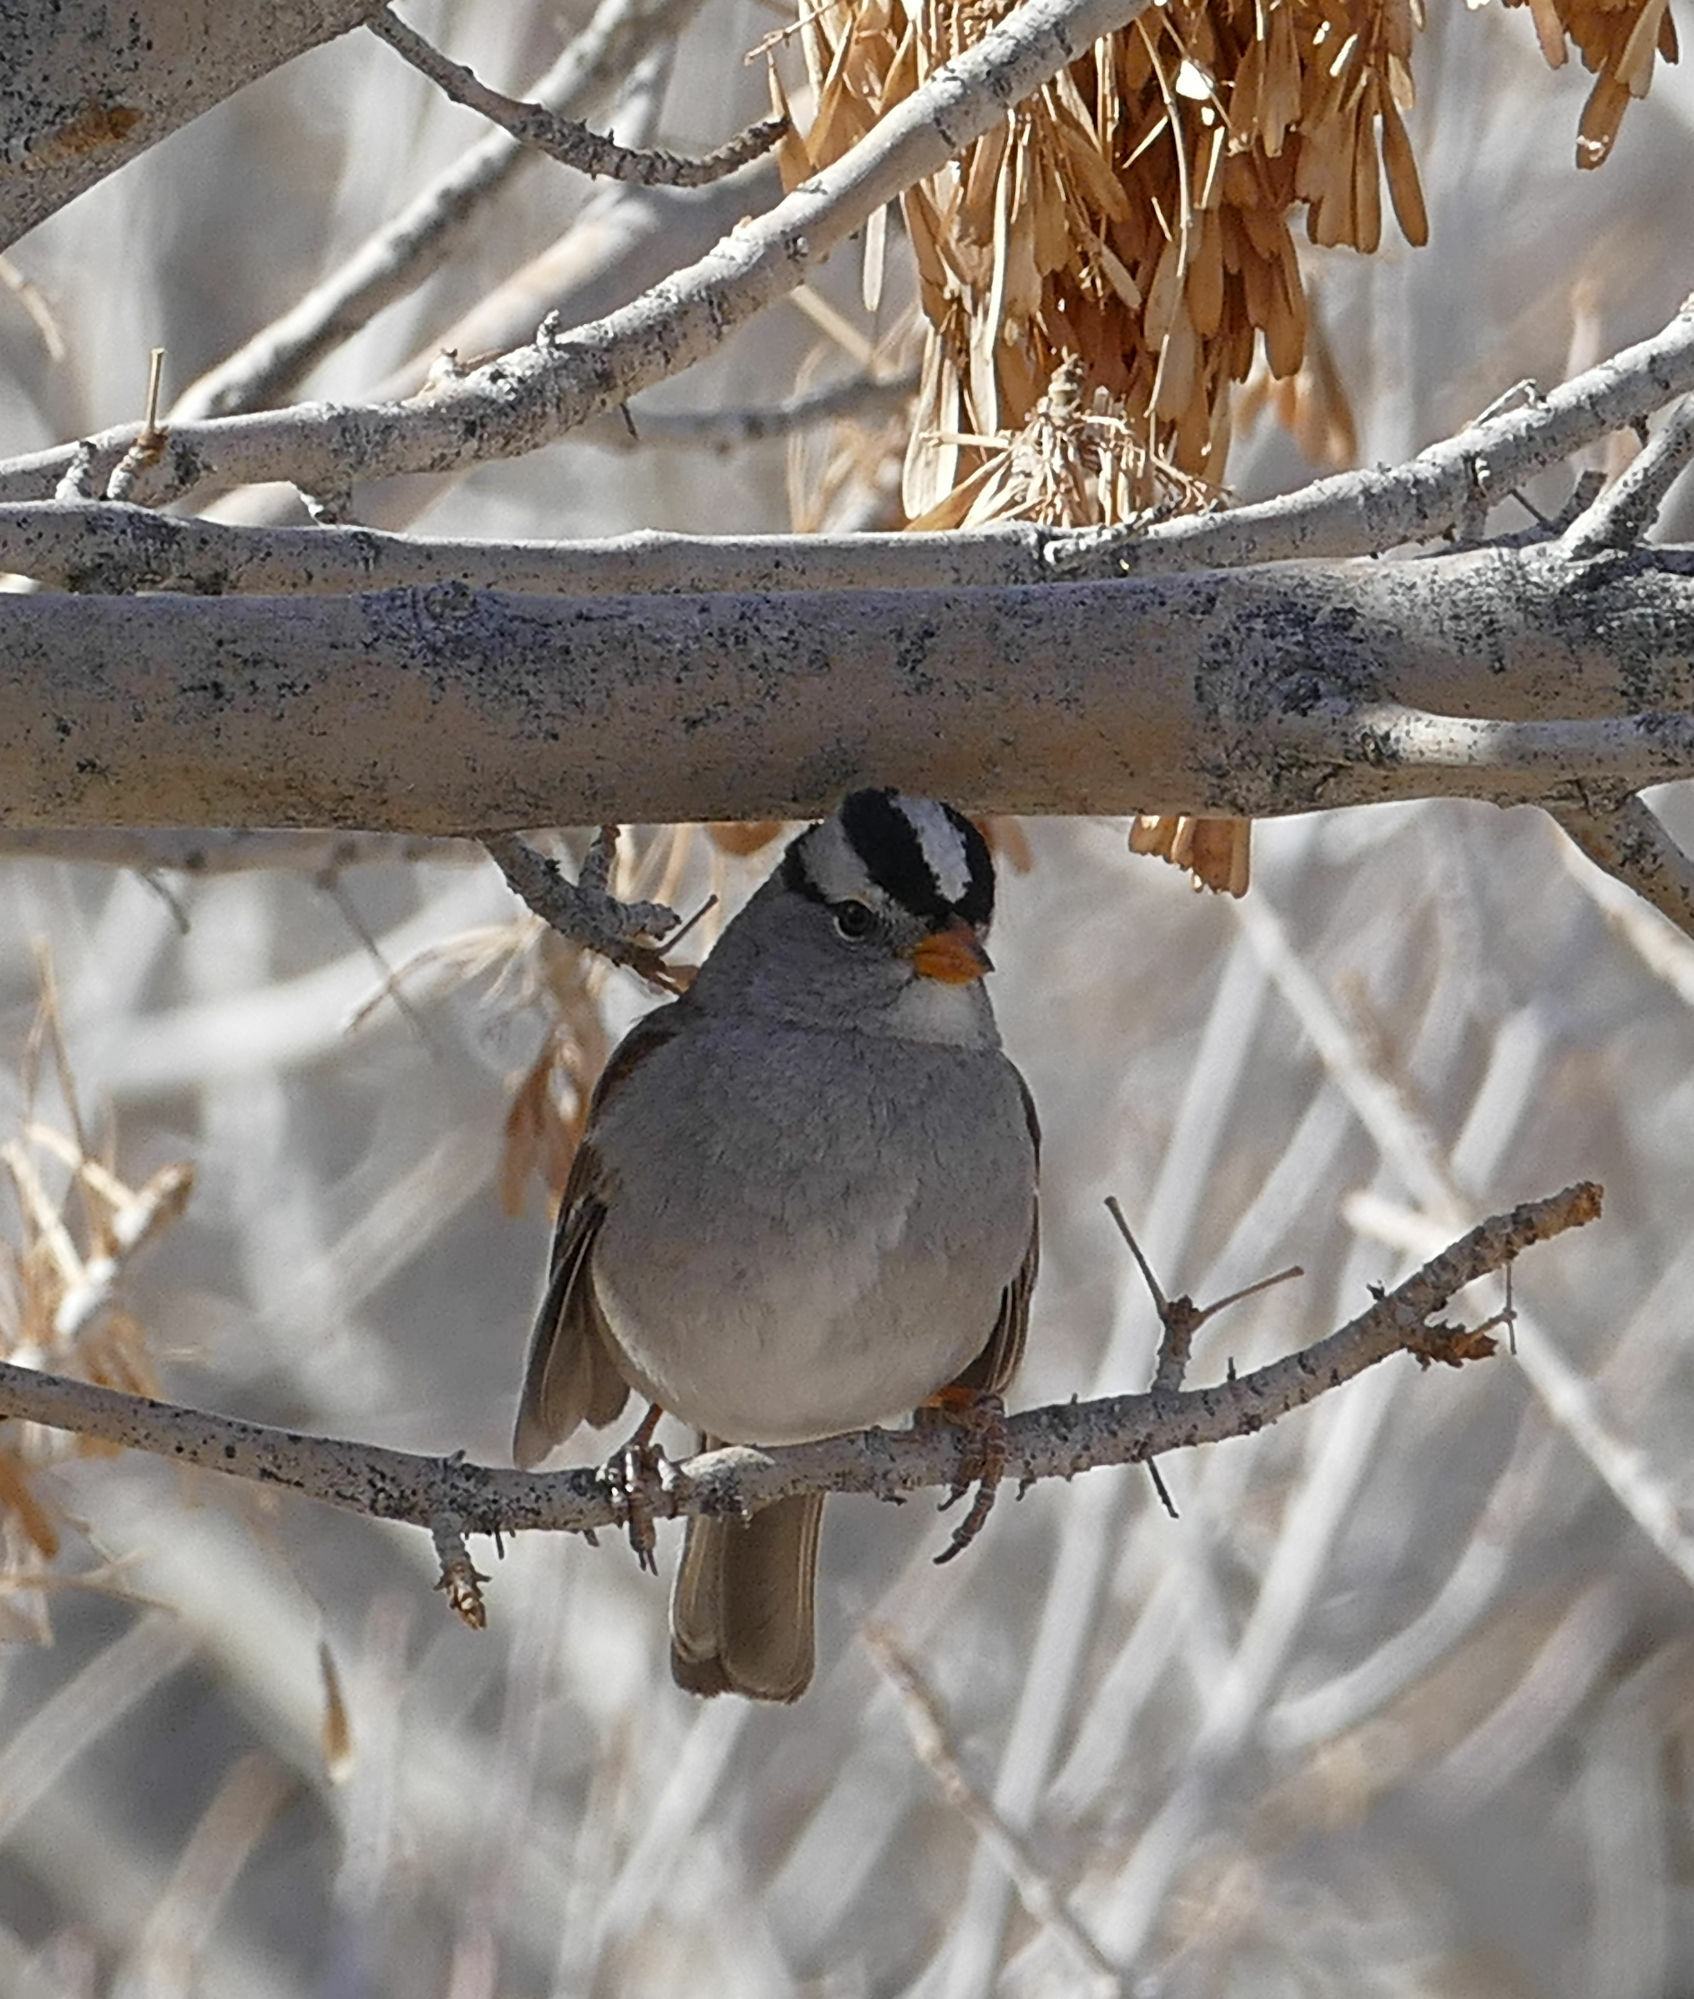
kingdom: Animalia
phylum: Chordata
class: Aves
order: Passeriformes
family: Passerellidae
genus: Zonotrichia
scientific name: Zonotrichia leucophrys
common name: White-crowned sparrow
